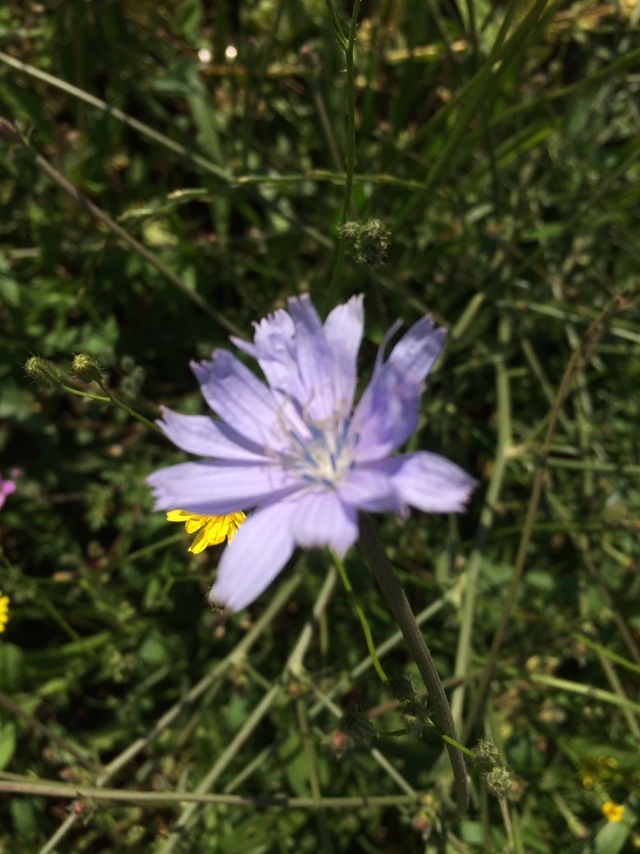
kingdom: Plantae
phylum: Tracheophyta
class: Magnoliopsida
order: Asterales
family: Asteraceae
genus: Cichorium
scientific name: Cichorium intybus
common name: Chicory
